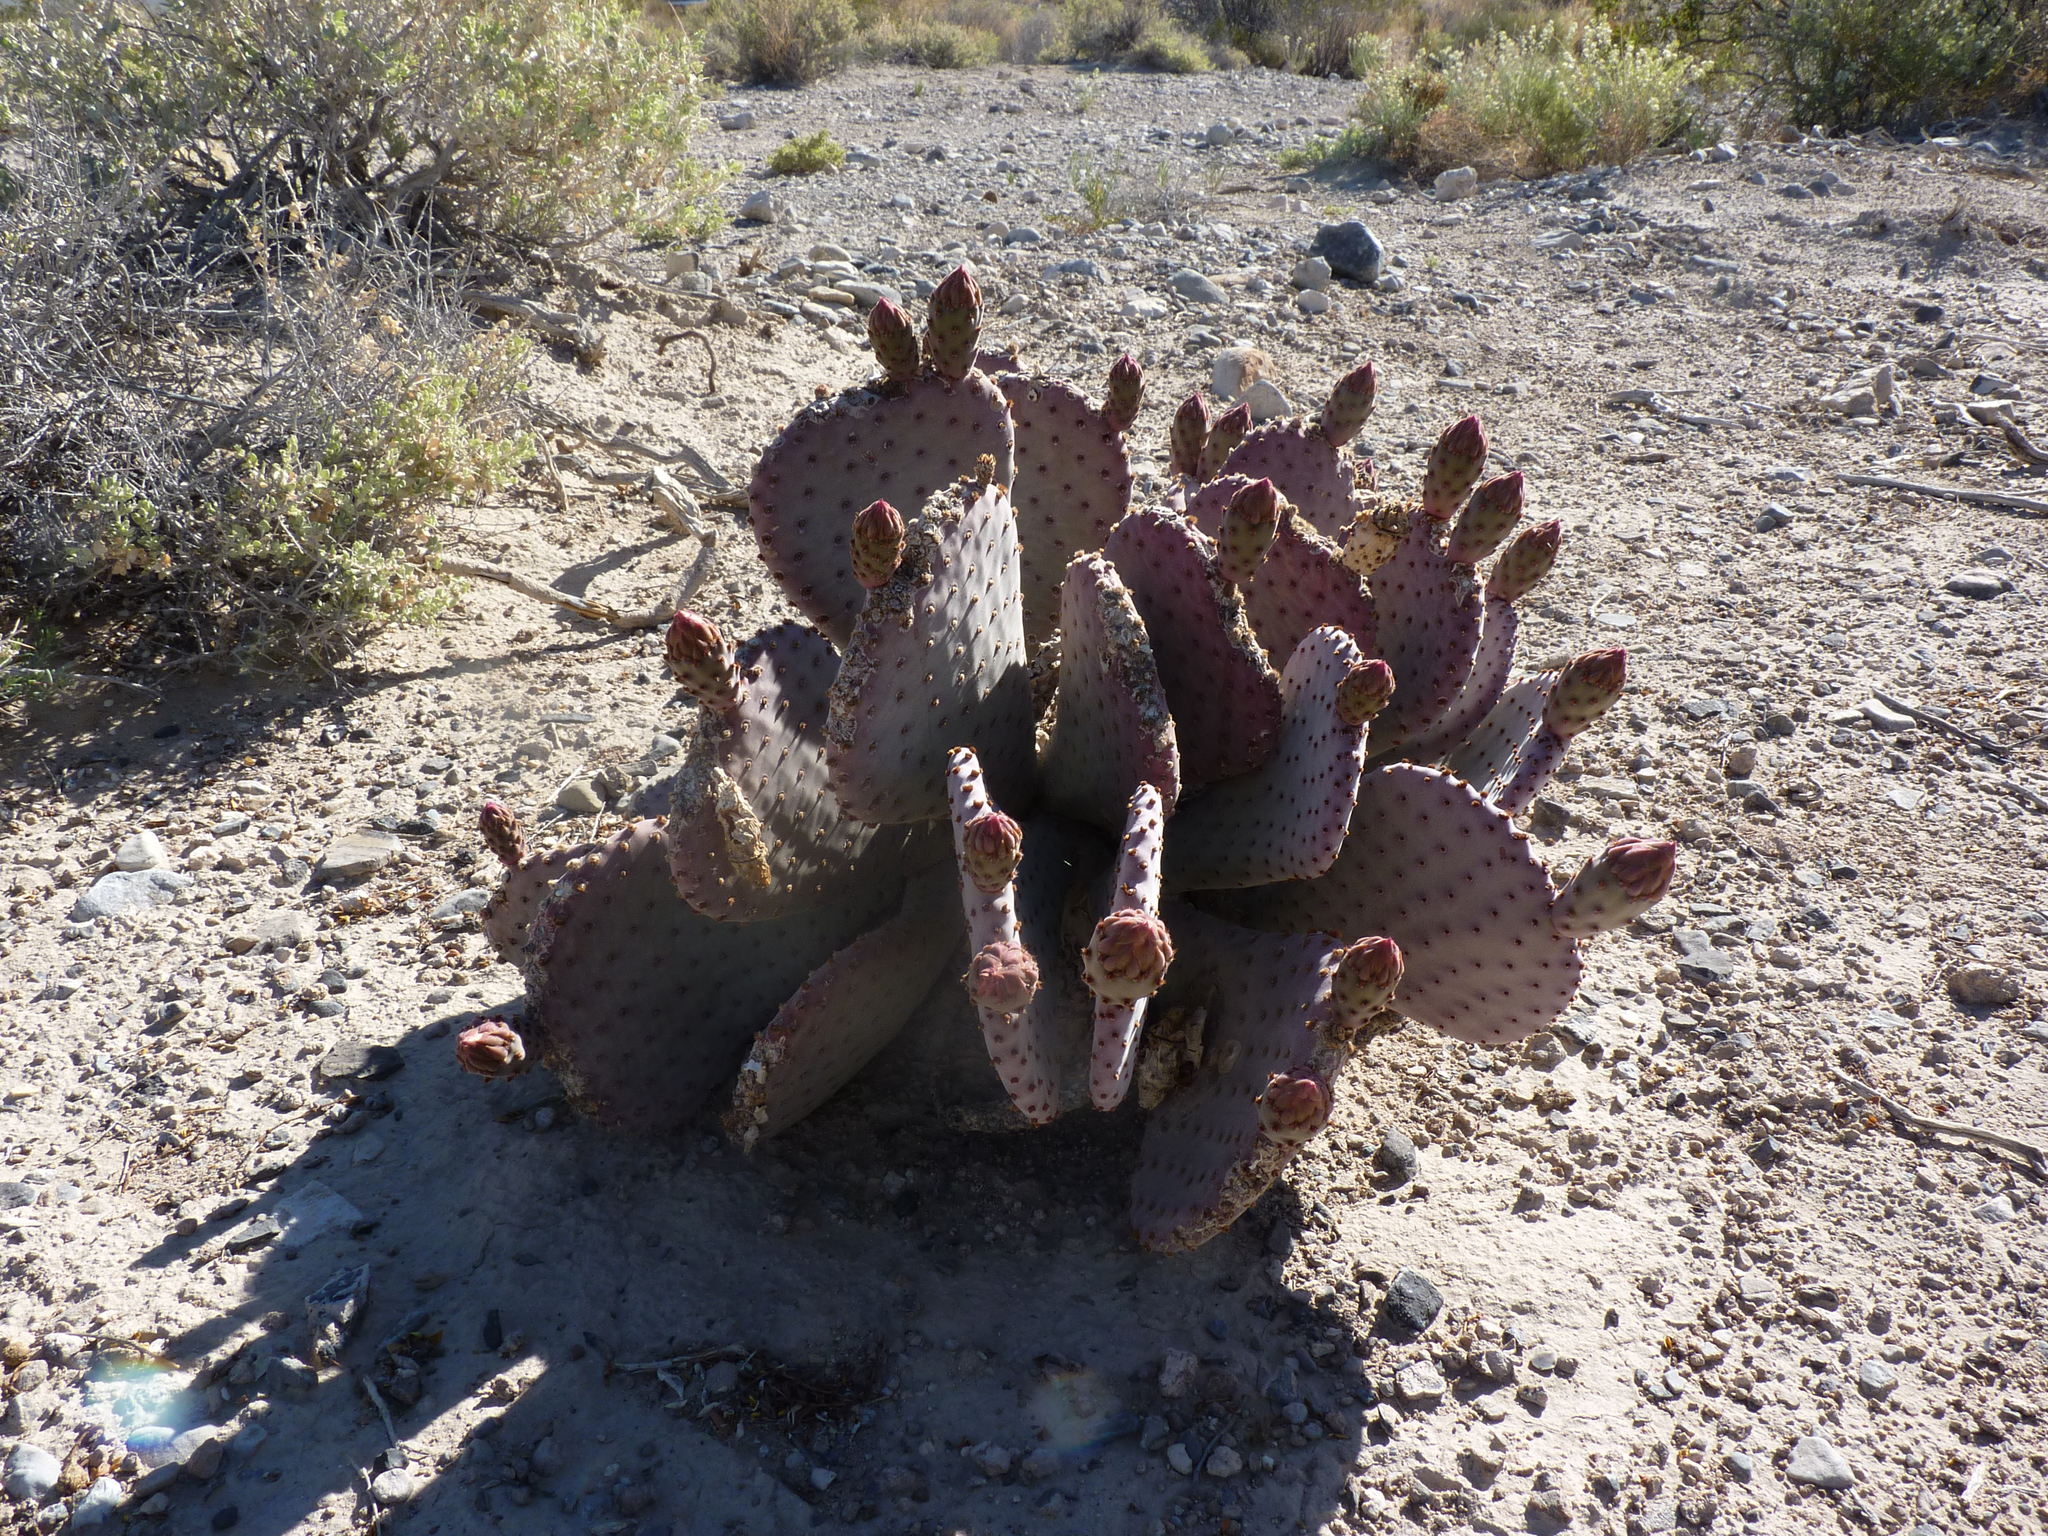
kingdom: Plantae
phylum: Tracheophyta
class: Magnoliopsida
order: Caryophyllales
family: Cactaceae
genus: Opuntia
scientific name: Opuntia basilaris
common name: Beavertail prickly-pear
